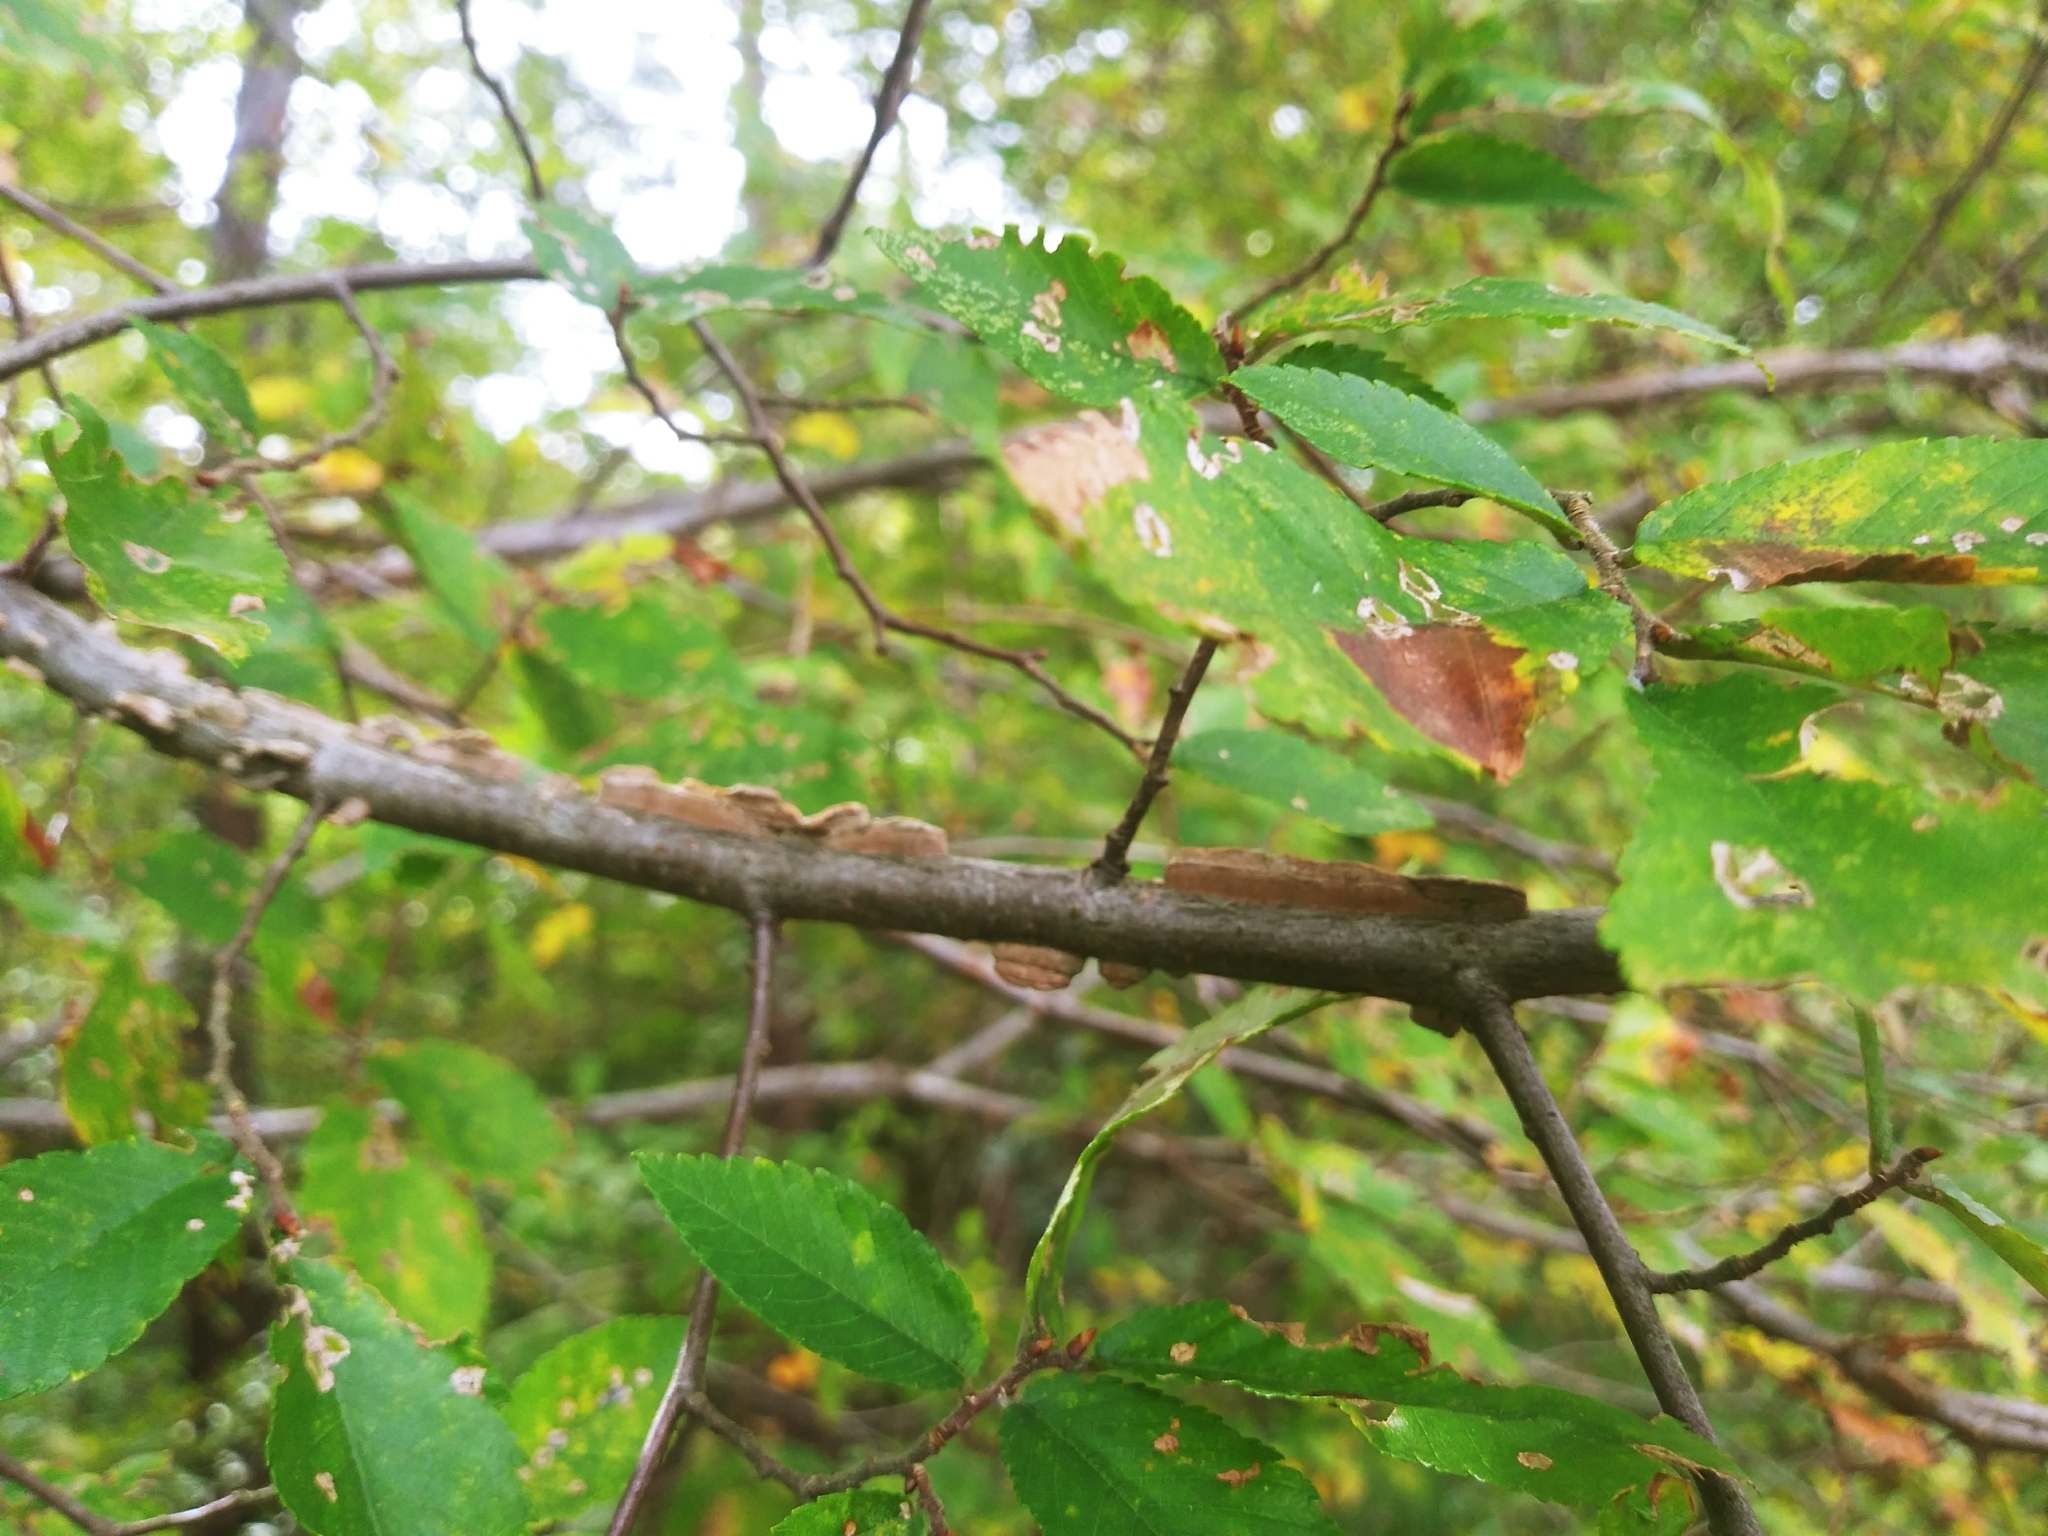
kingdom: Plantae
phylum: Tracheophyta
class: Magnoliopsida
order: Rosales
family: Ulmaceae
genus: Ulmus
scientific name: Ulmus alata
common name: Winged elm
